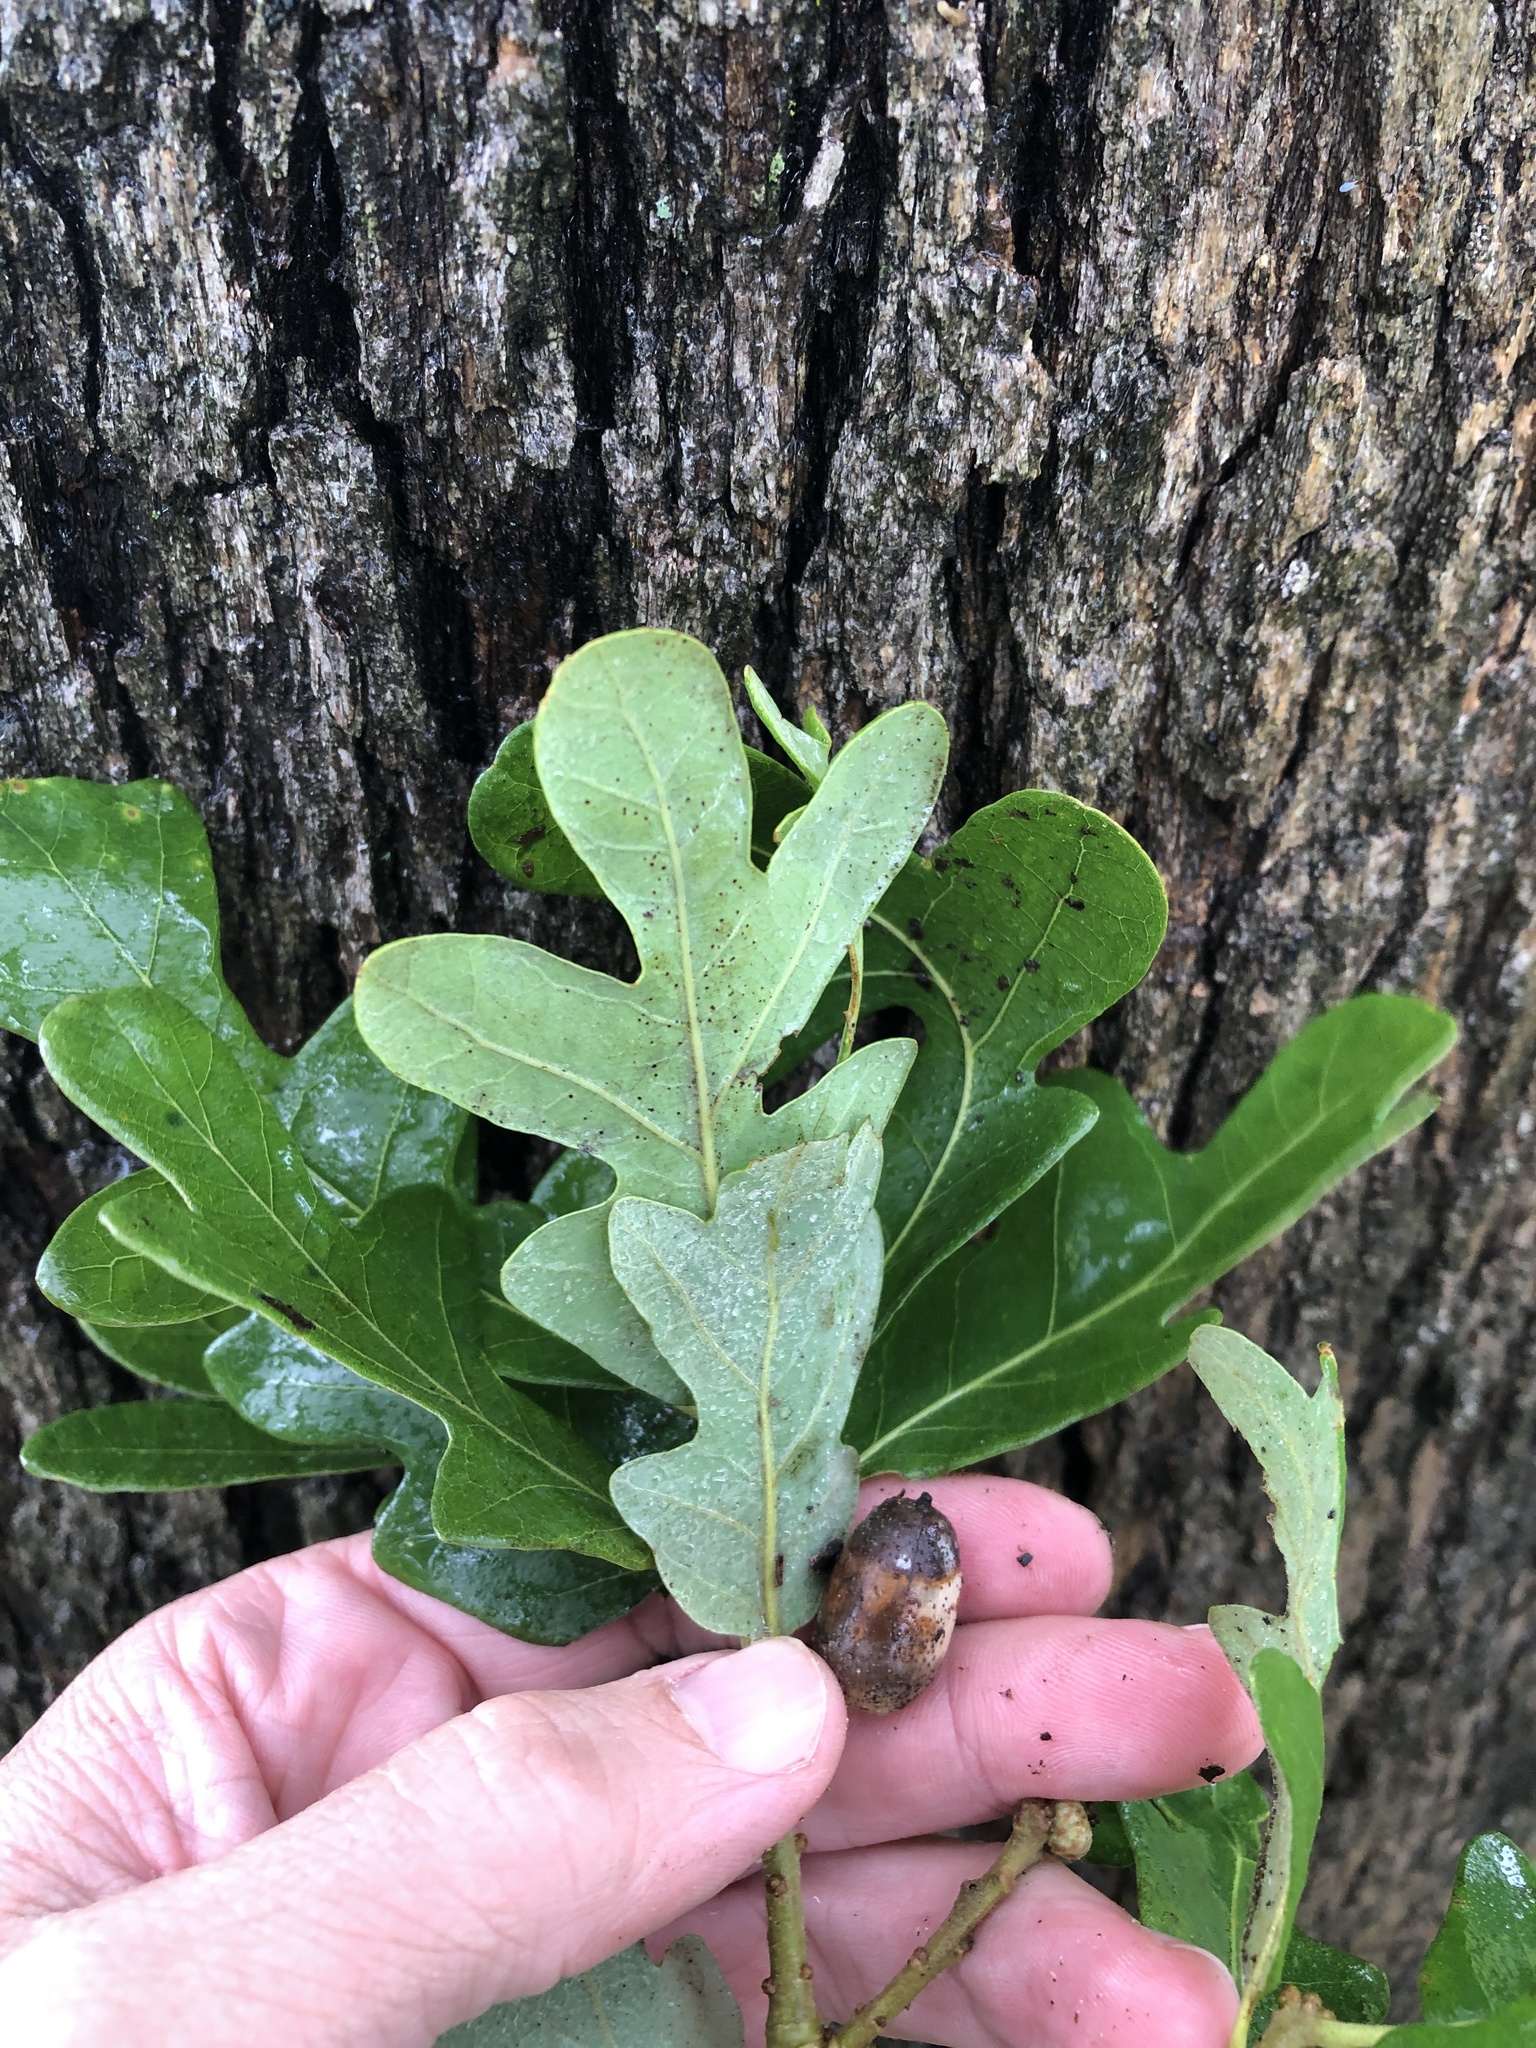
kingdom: Plantae
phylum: Tracheophyta
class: Magnoliopsida
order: Fagales
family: Fagaceae
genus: Quercus
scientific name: Quercus stellata
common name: Post oak
